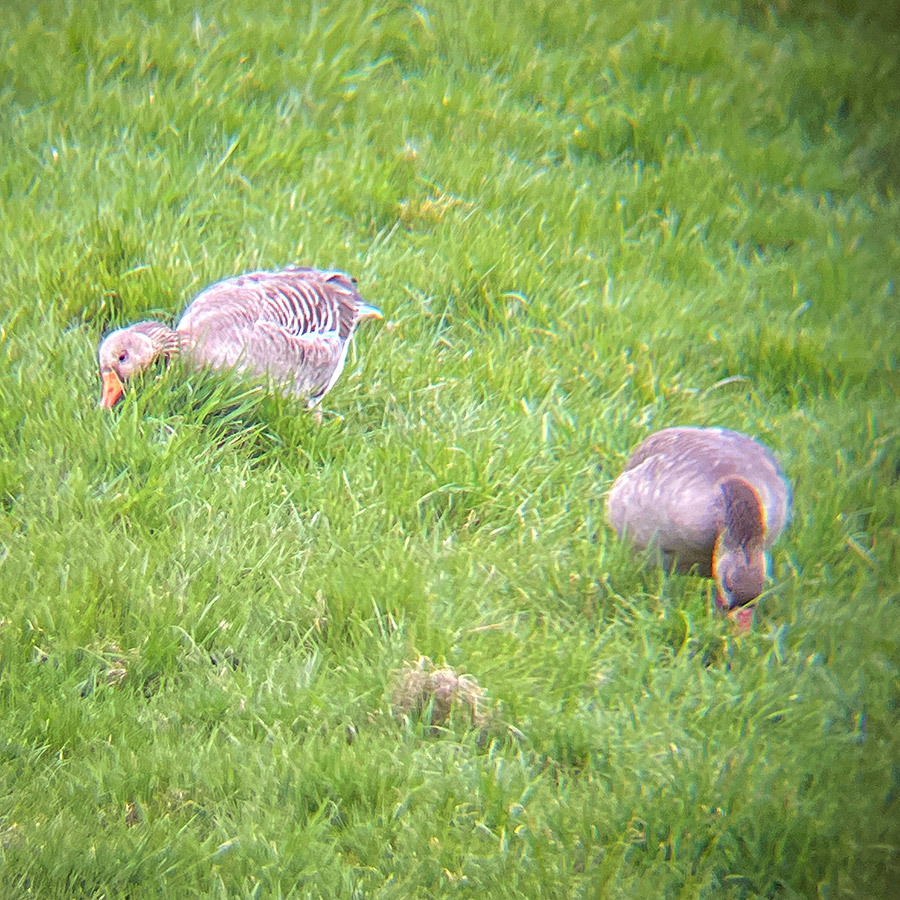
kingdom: Animalia
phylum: Chordata
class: Aves
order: Anseriformes
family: Anatidae
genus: Anser
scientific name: Anser anser
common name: Greylag goose
